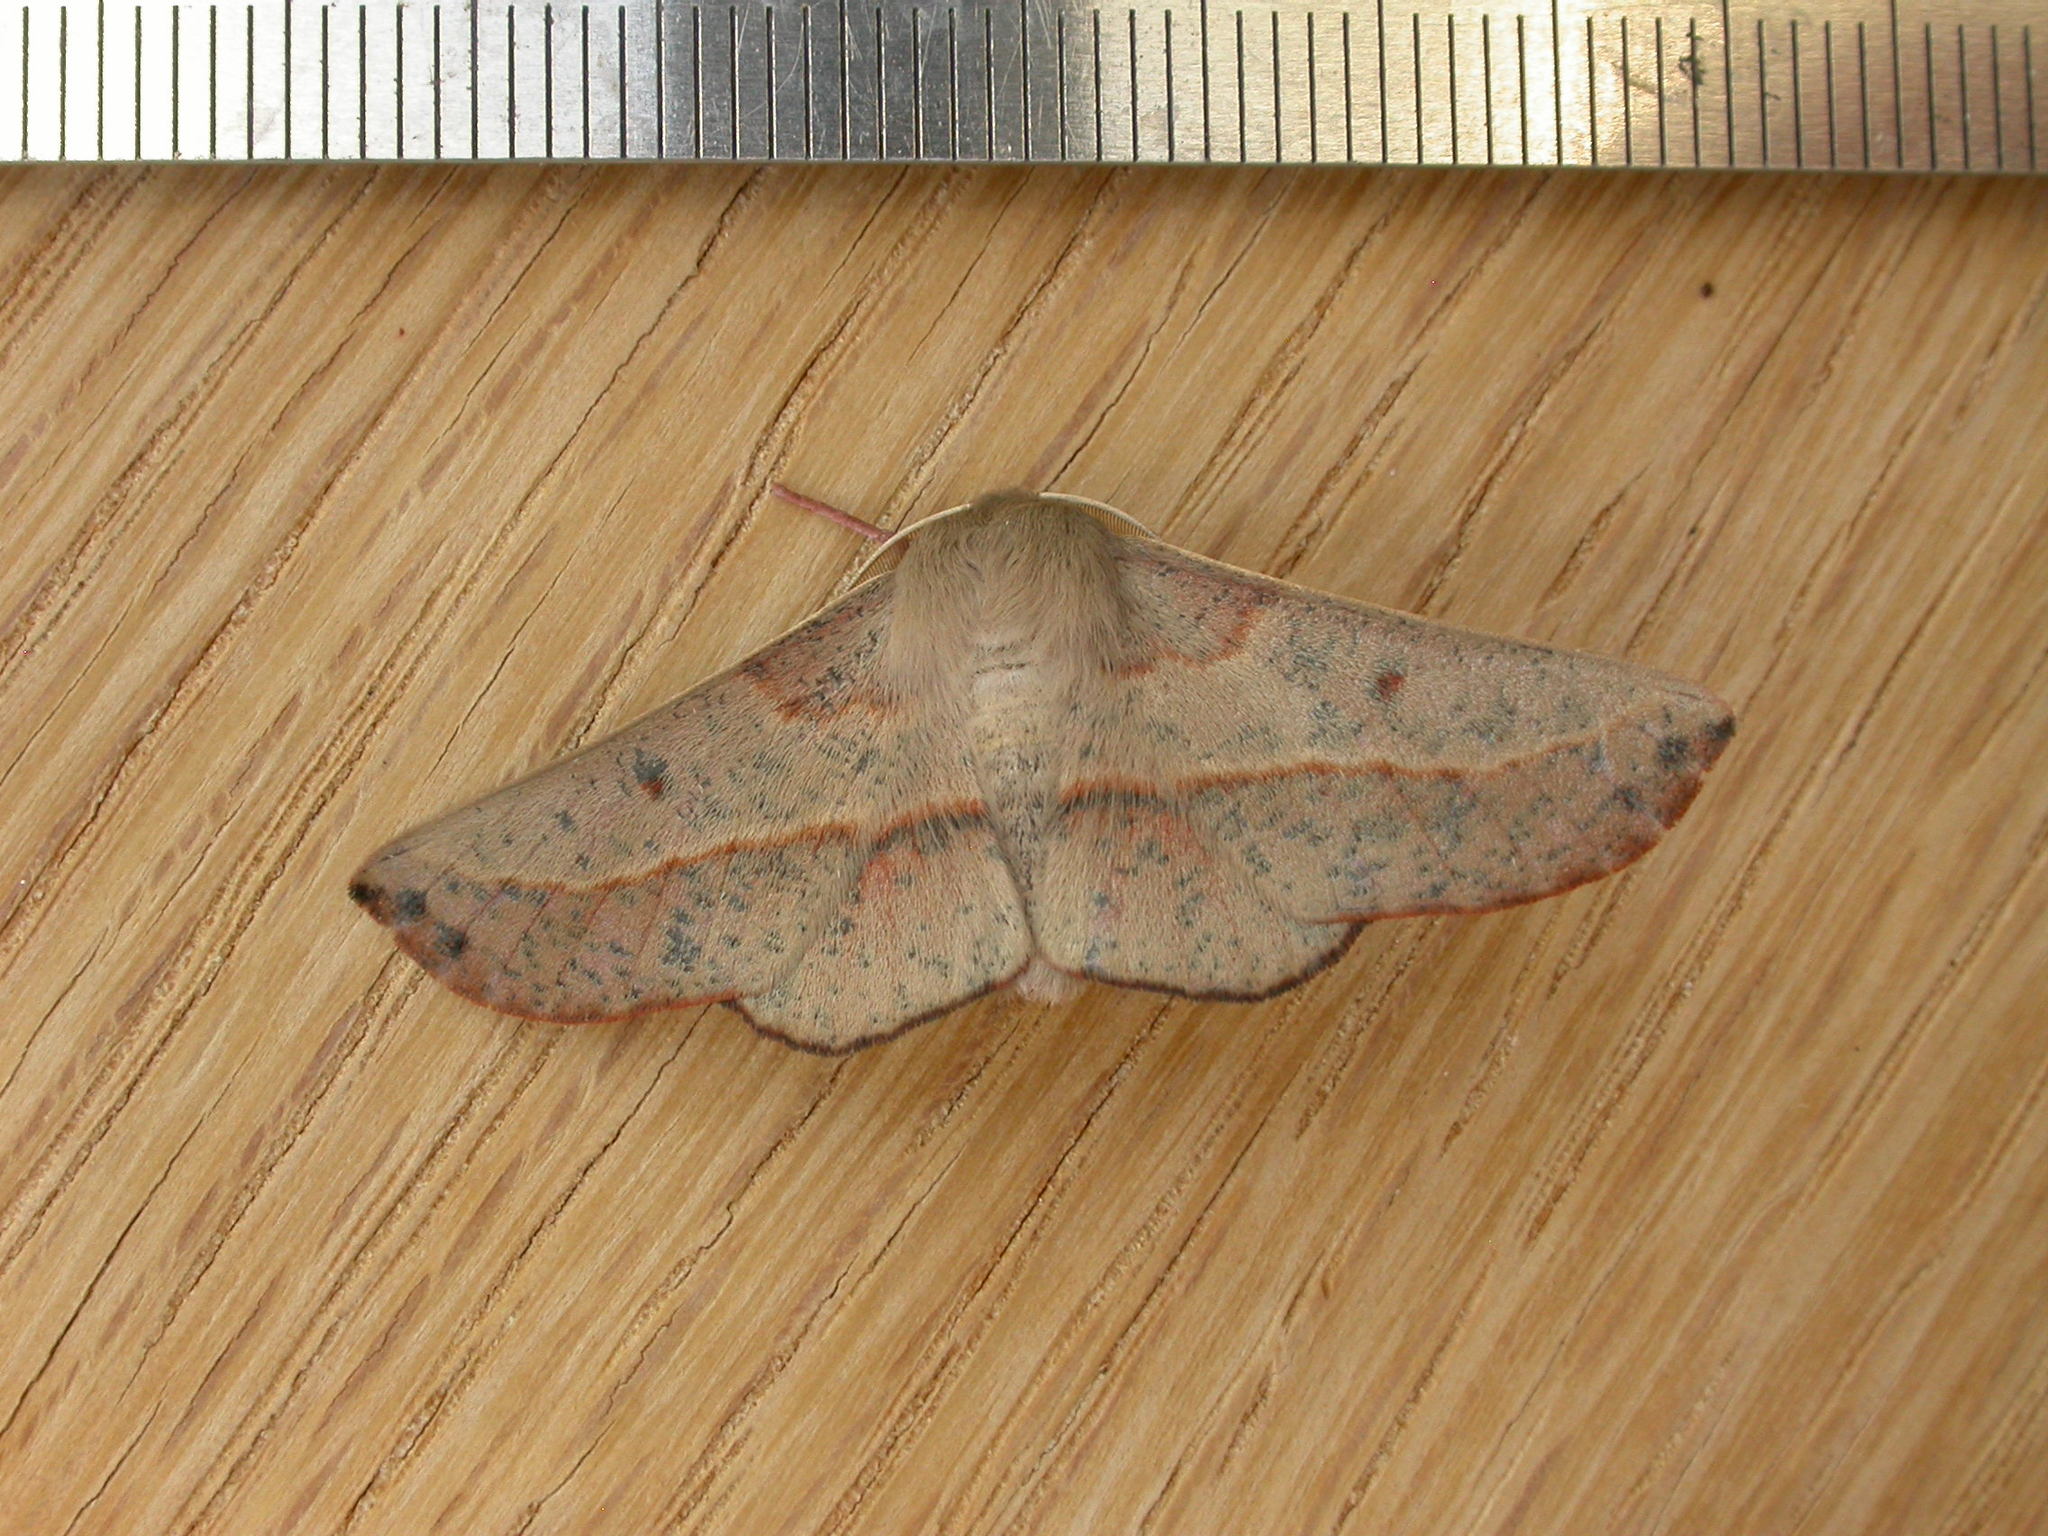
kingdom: Animalia
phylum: Arthropoda
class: Insecta
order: Lepidoptera
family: Geometridae
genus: Antictenia
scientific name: Antictenia punctunculus
